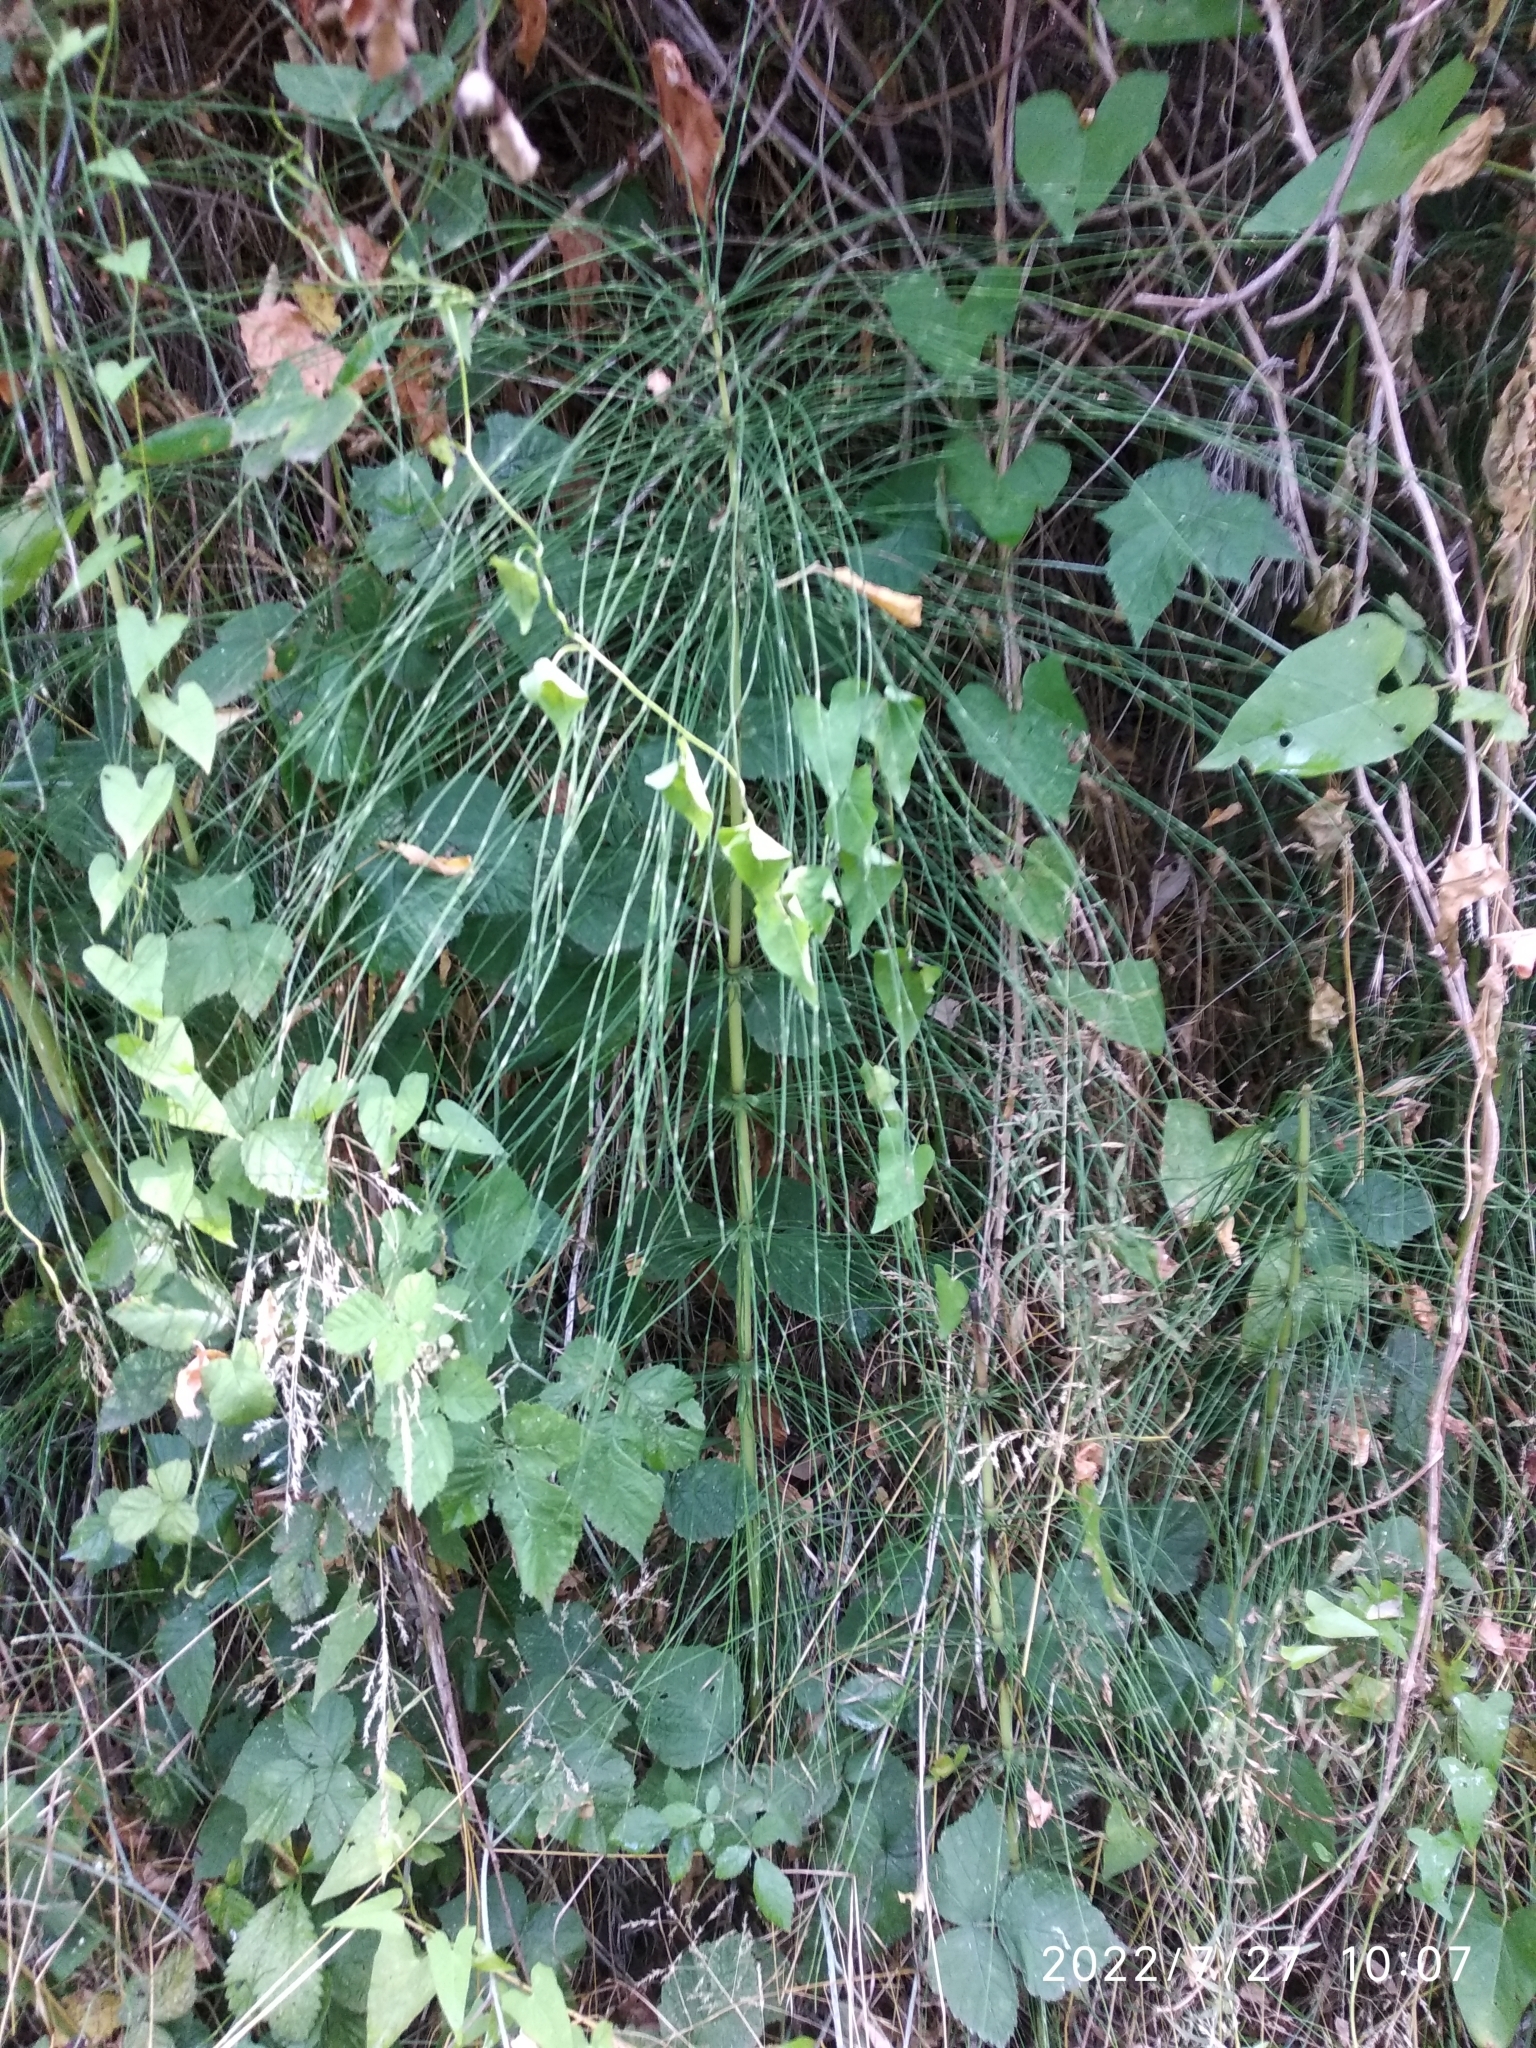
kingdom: Plantae
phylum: Tracheophyta
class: Polypodiopsida
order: Equisetales
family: Equisetaceae
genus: Equisetum
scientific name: Equisetum telmateia
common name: Great horsetail
